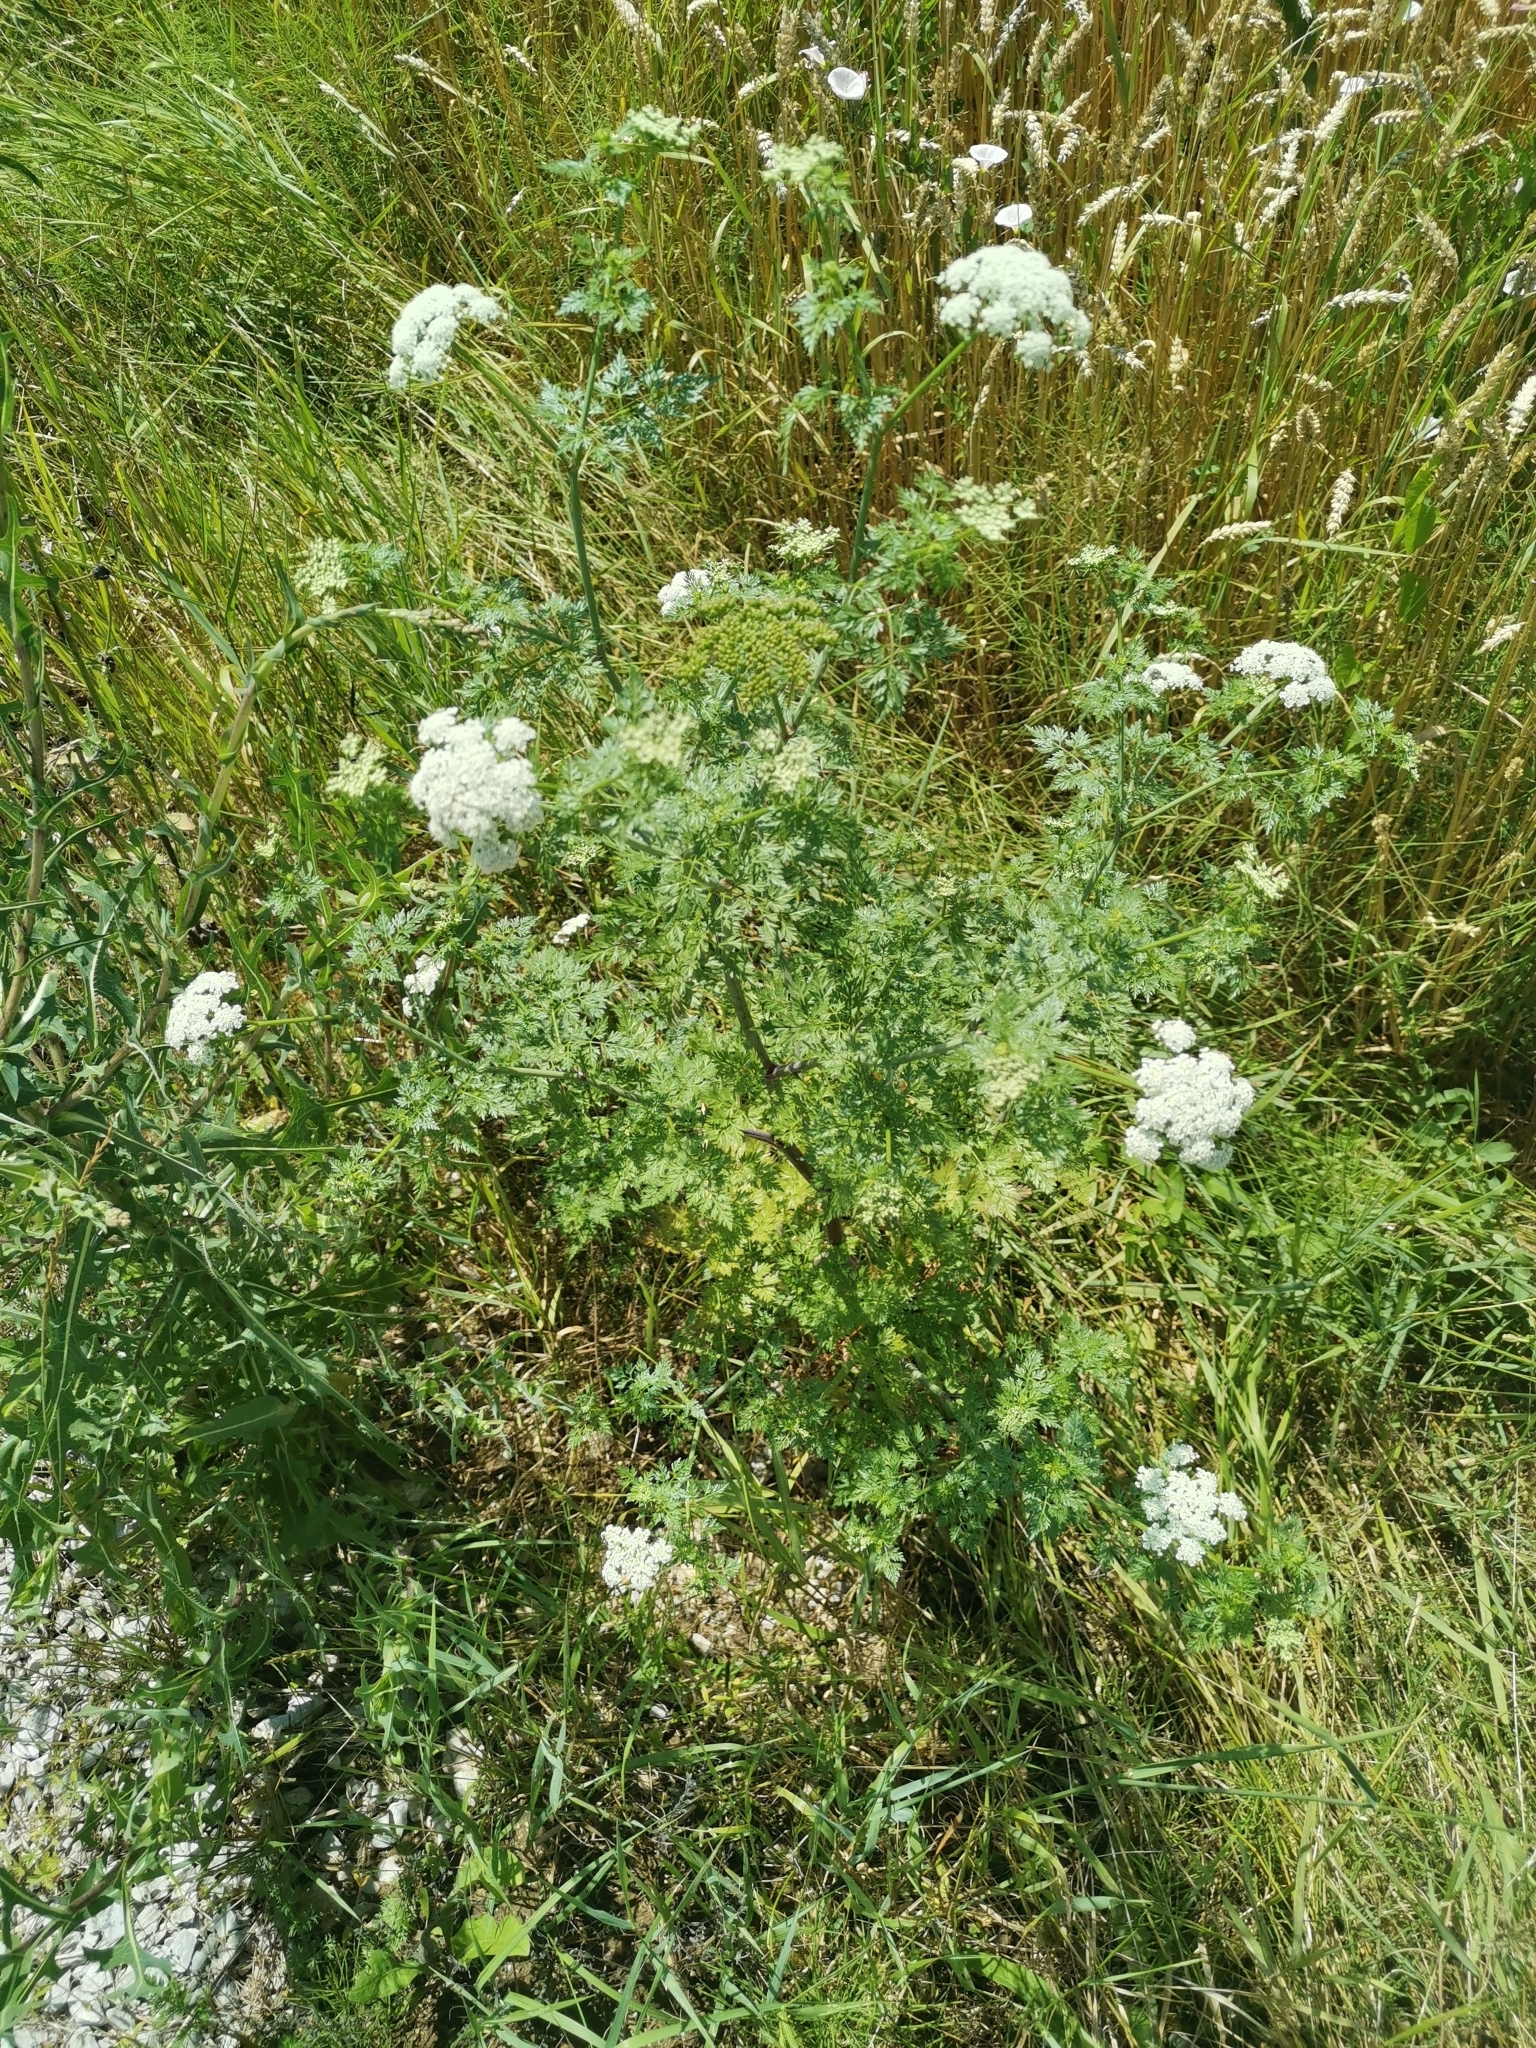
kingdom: Plantae
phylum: Tracheophyta
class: Magnoliopsida
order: Apiales
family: Apiaceae
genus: Aethusa
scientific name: Aethusa cynapium
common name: Fool's parsley
